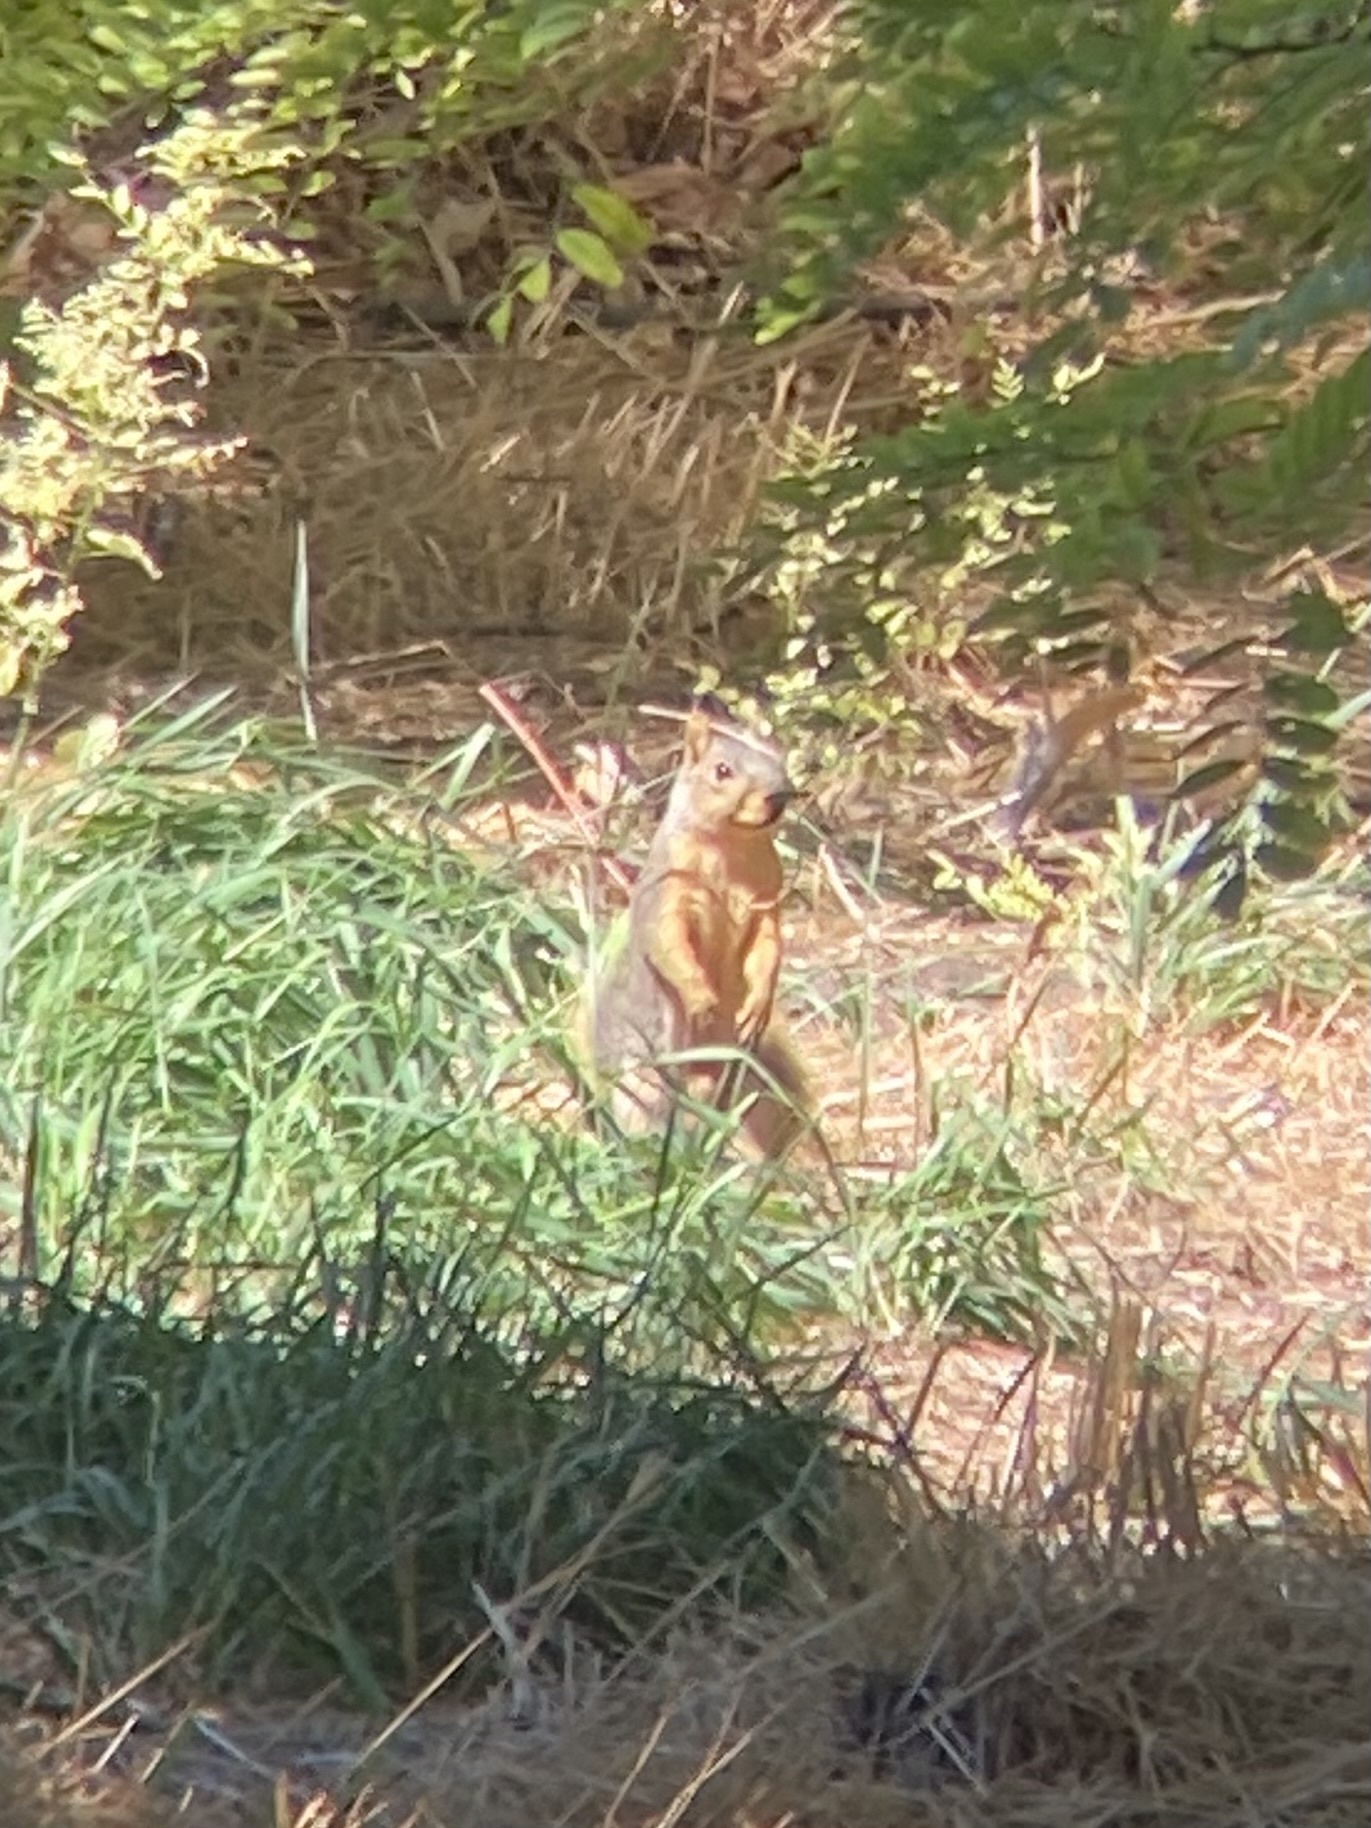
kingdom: Animalia
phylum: Chordata
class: Mammalia
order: Rodentia
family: Sciuridae
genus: Sciurus
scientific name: Sciurus niger
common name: Fox squirrel
